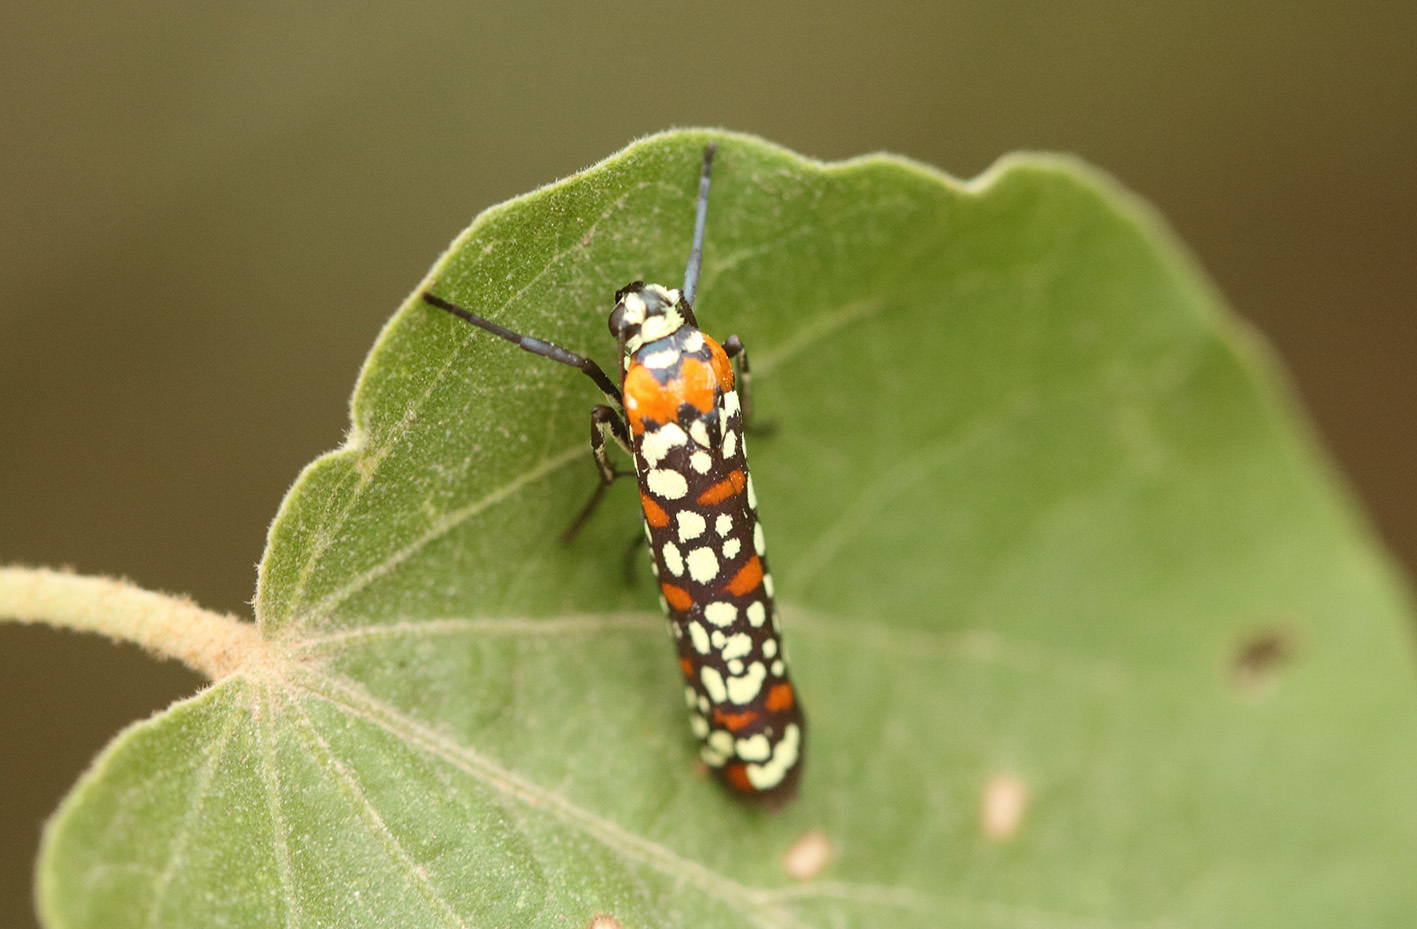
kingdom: Animalia
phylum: Arthropoda
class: Insecta
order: Lepidoptera
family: Attevidae
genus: Atteva
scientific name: Atteva punctella
